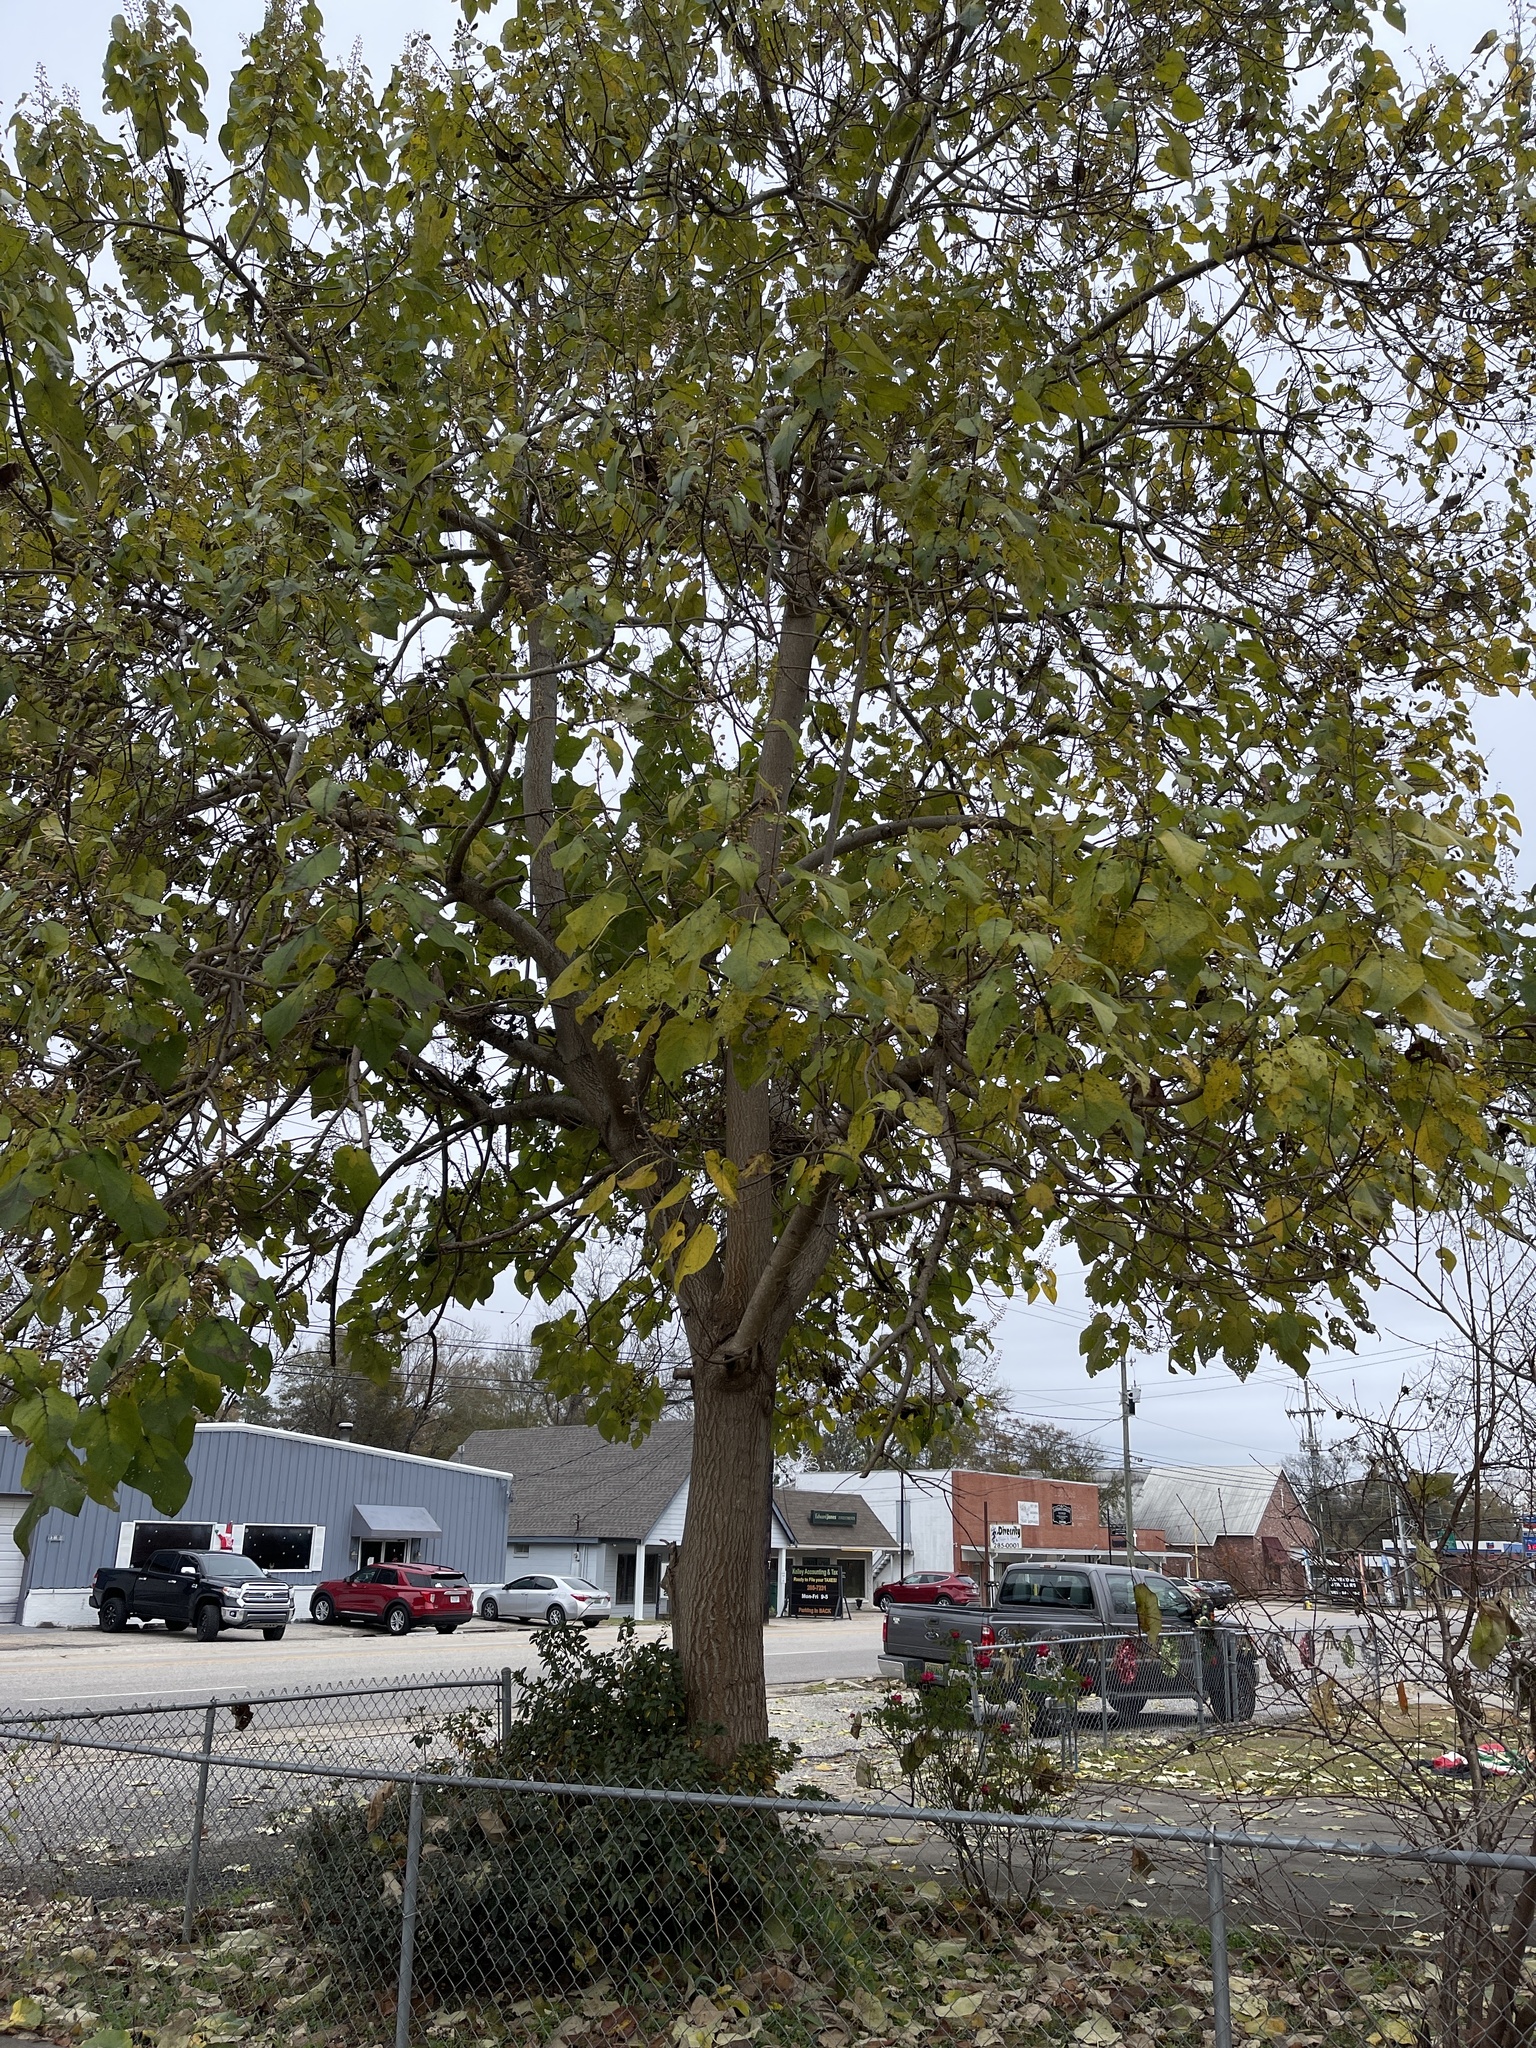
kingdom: Plantae
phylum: Tracheophyta
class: Magnoliopsida
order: Lamiales
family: Paulowniaceae
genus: Paulownia
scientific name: Paulownia tomentosa
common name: Foxglove-tree
